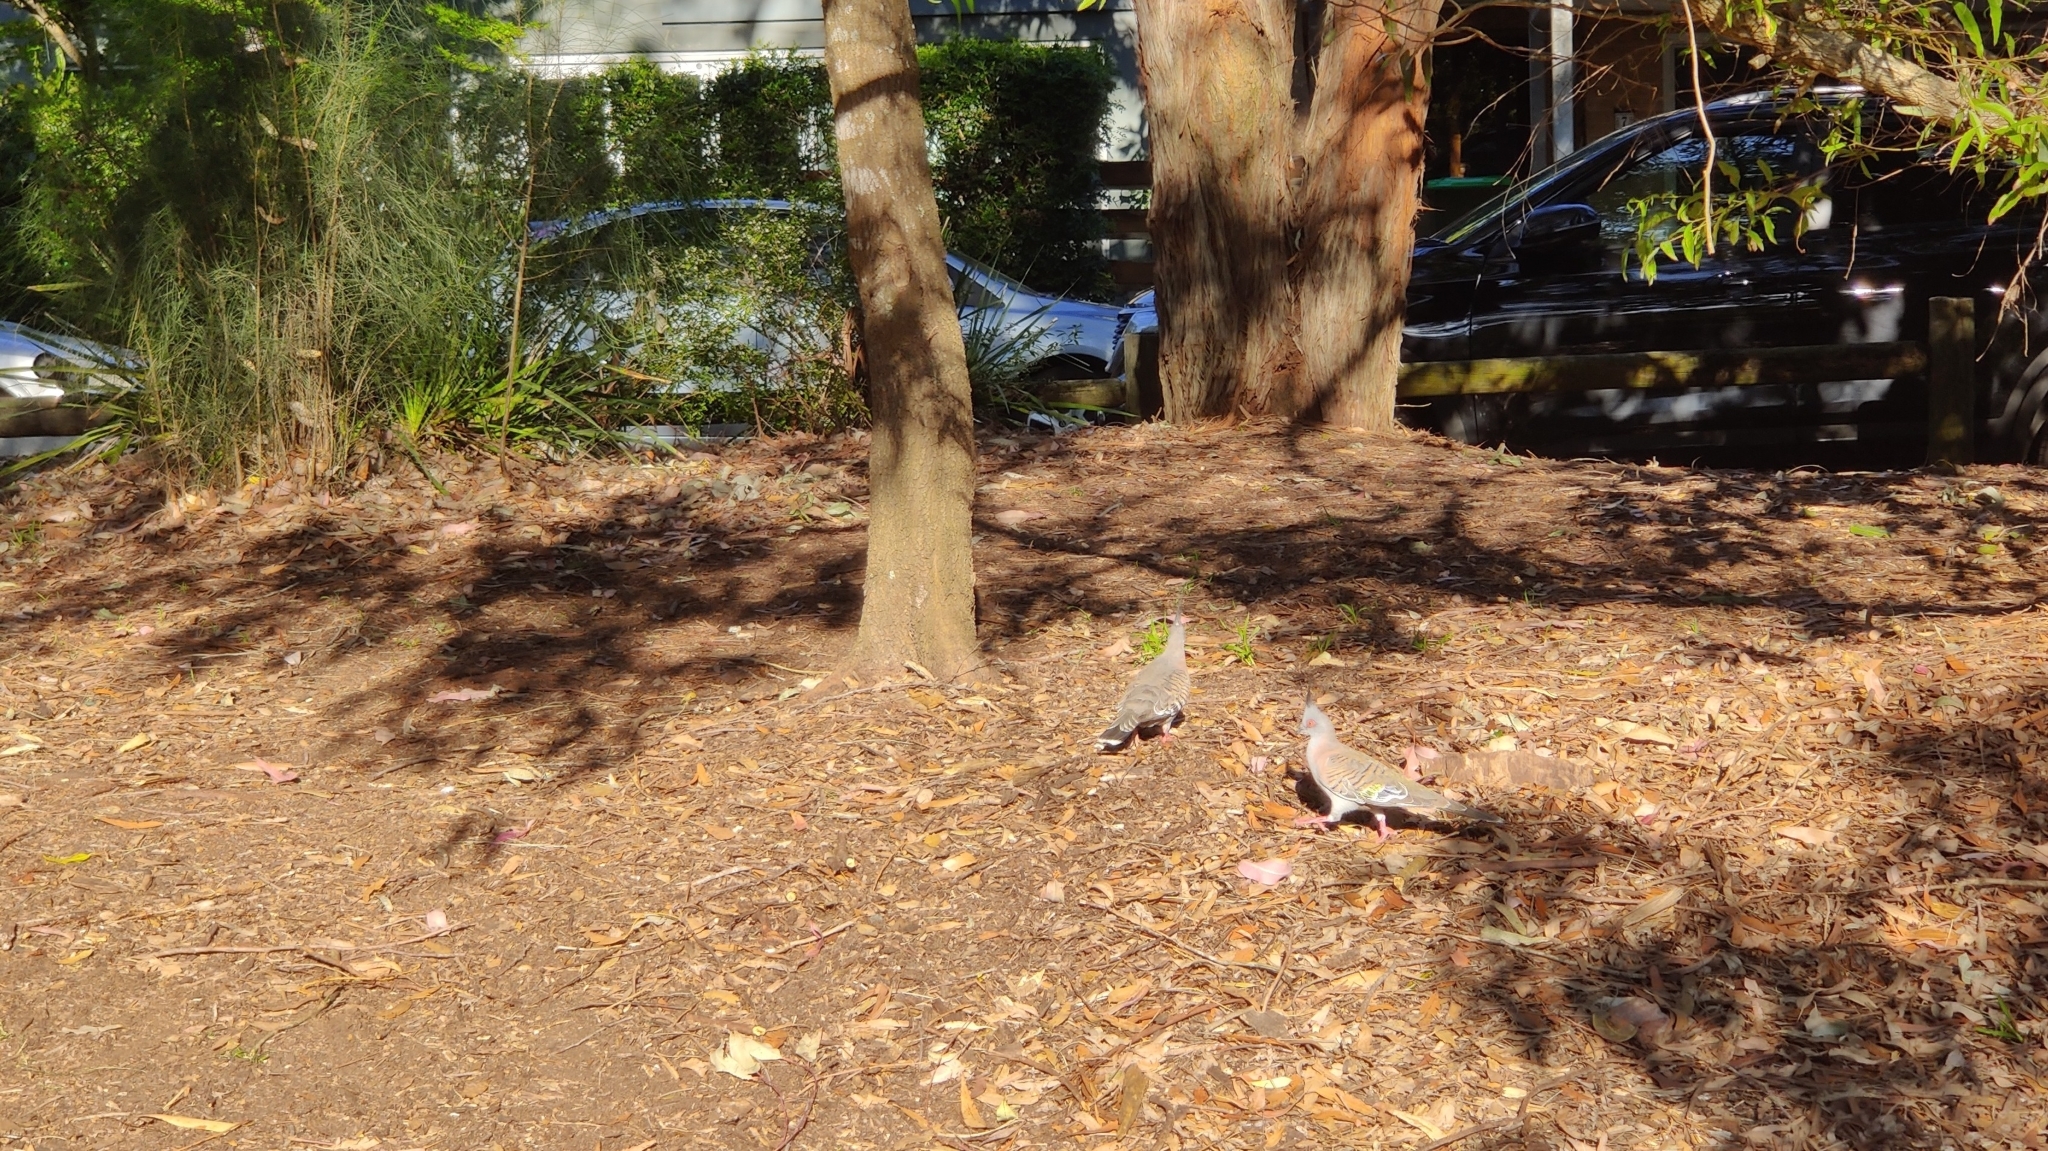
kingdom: Animalia
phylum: Chordata
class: Aves
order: Columbiformes
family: Columbidae
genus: Ocyphaps
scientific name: Ocyphaps lophotes
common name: Crested pigeon
